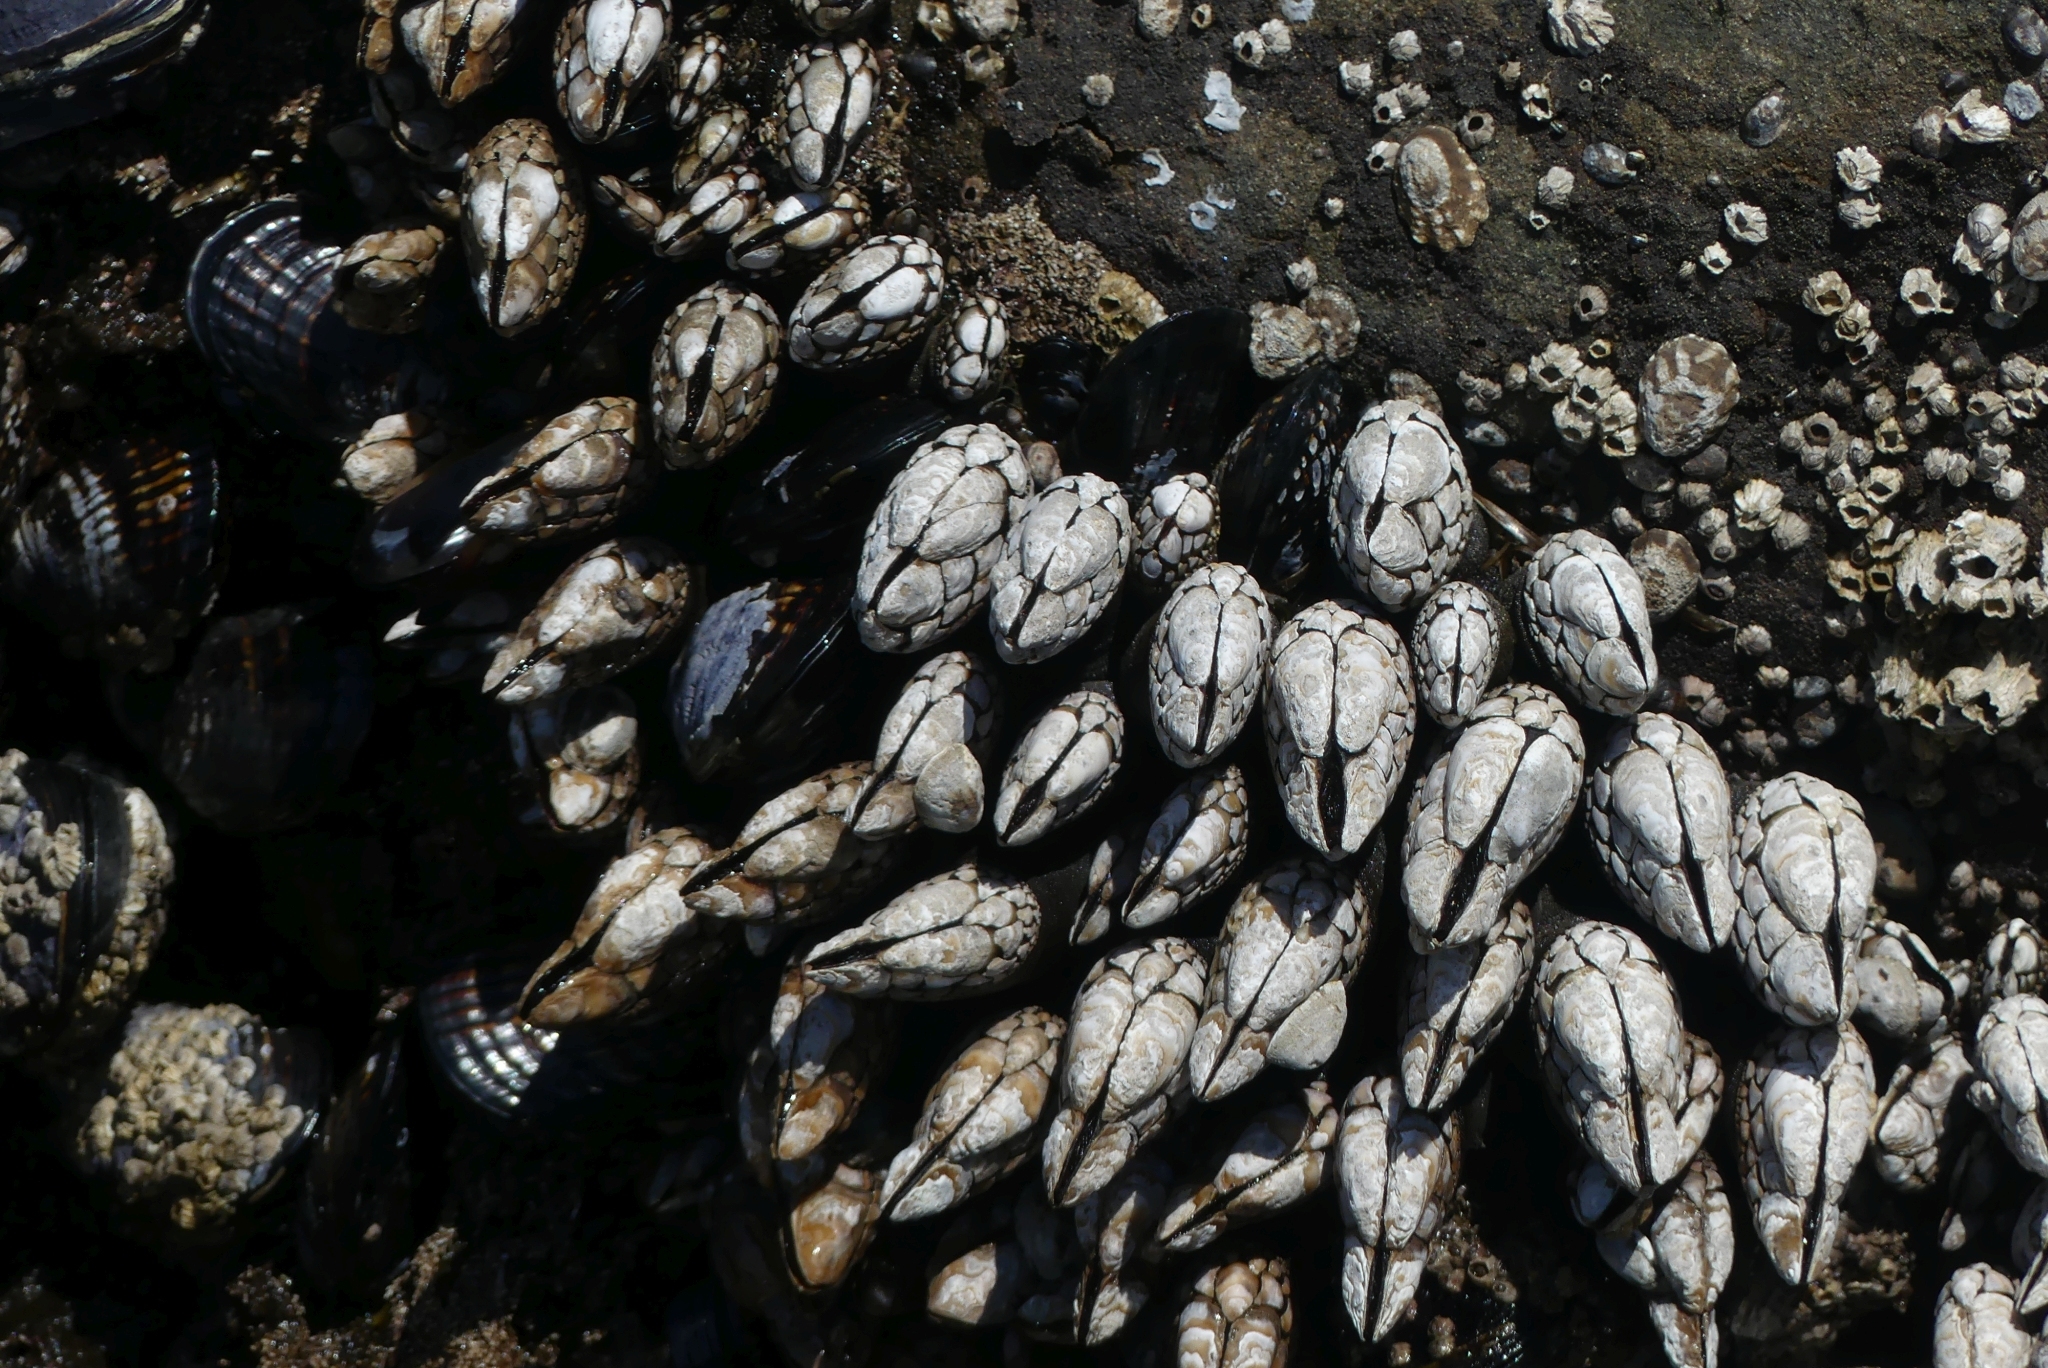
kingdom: Animalia
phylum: Arthropoda
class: Maxillopoda
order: Pedunculata
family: Pollicipedidae
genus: Pollicipes
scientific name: Pollicipes polymerus
